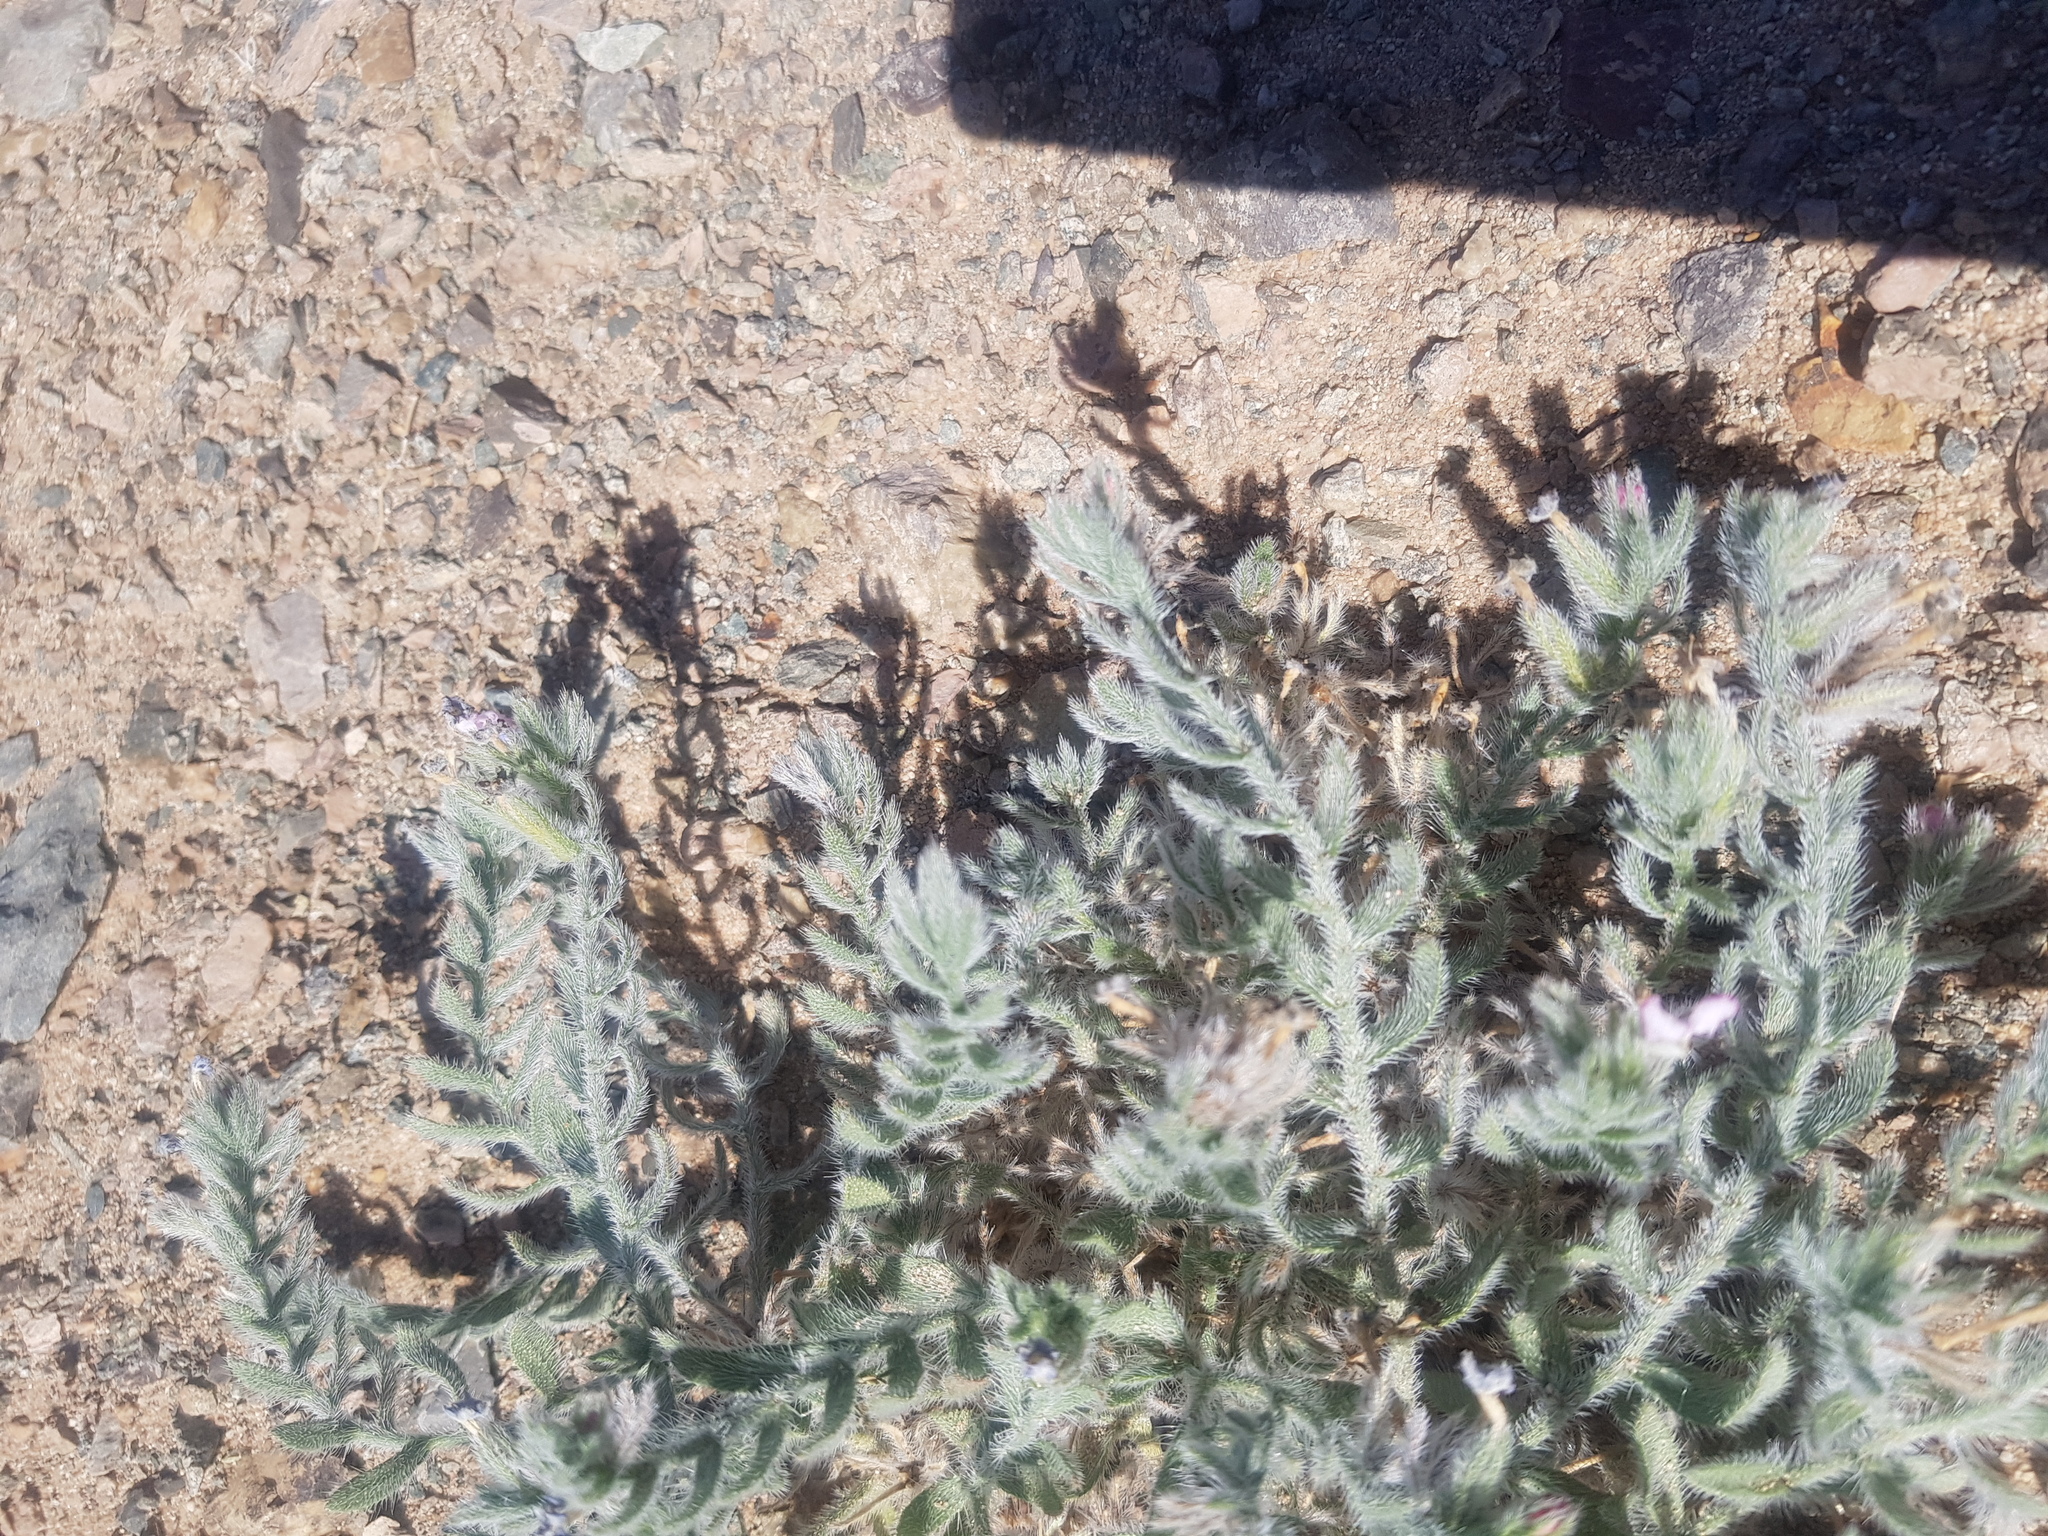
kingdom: Plantae
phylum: Tracheophyta
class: Magnoliopsida
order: Boraginales
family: Boraginaceae
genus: Arnebia
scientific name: Arnebia fimbriata
